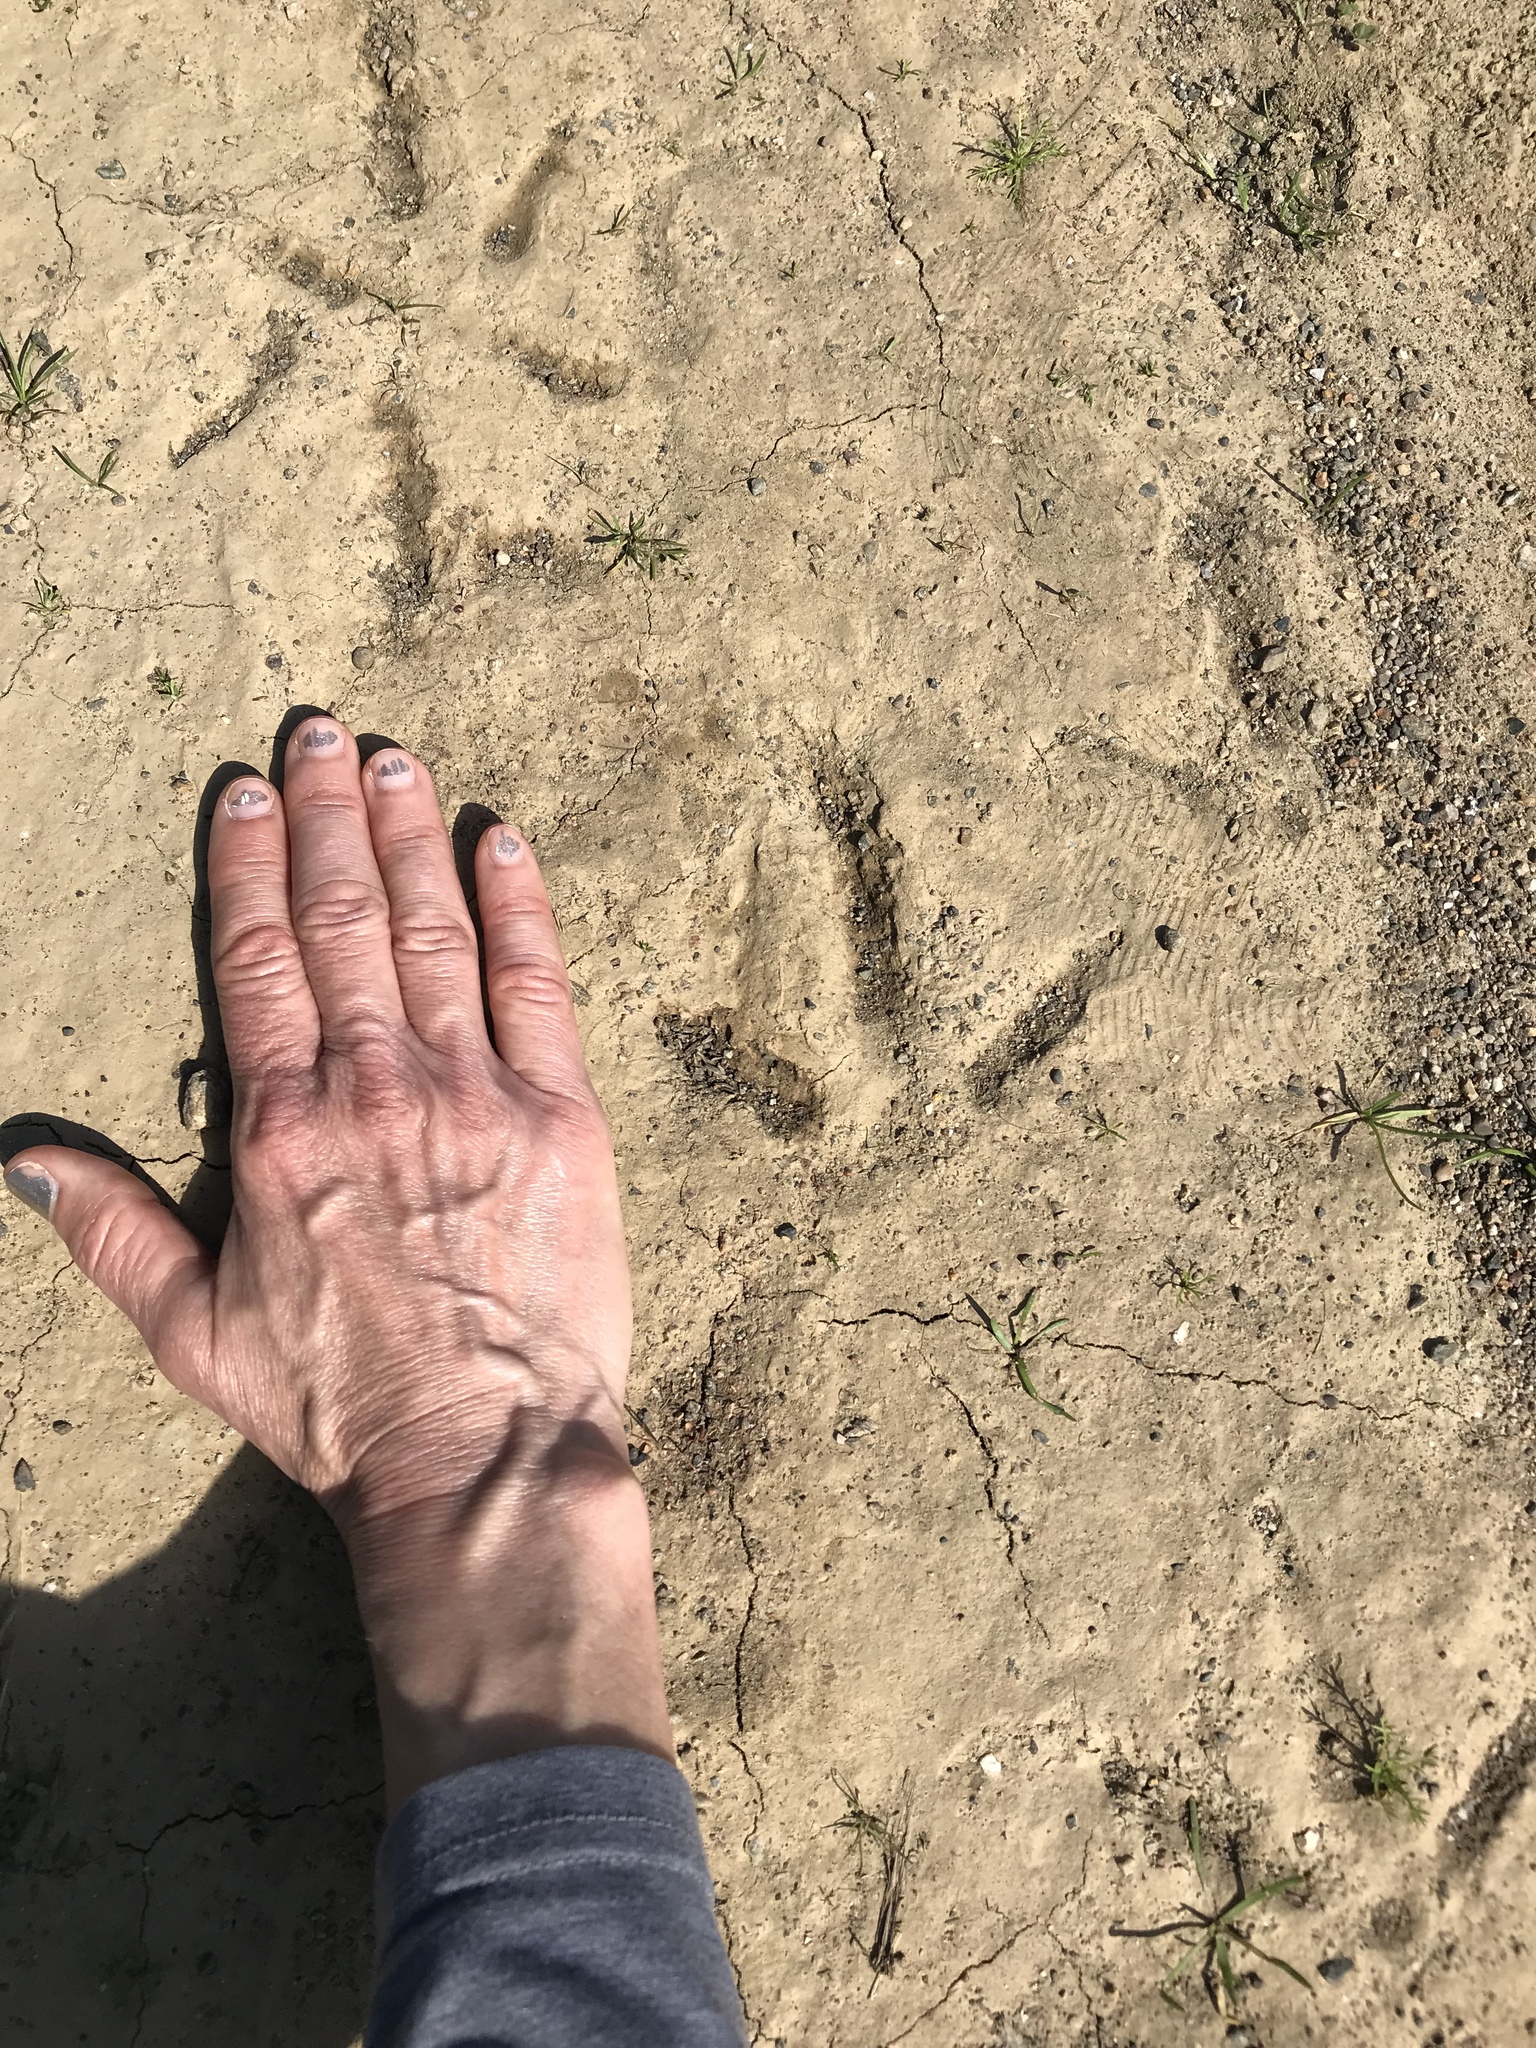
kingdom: Animalia
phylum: Chordata
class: Aves
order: Galliformes
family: Phasianidae
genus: Meleagris
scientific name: Meleagris gallopavo
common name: Wild turkey
